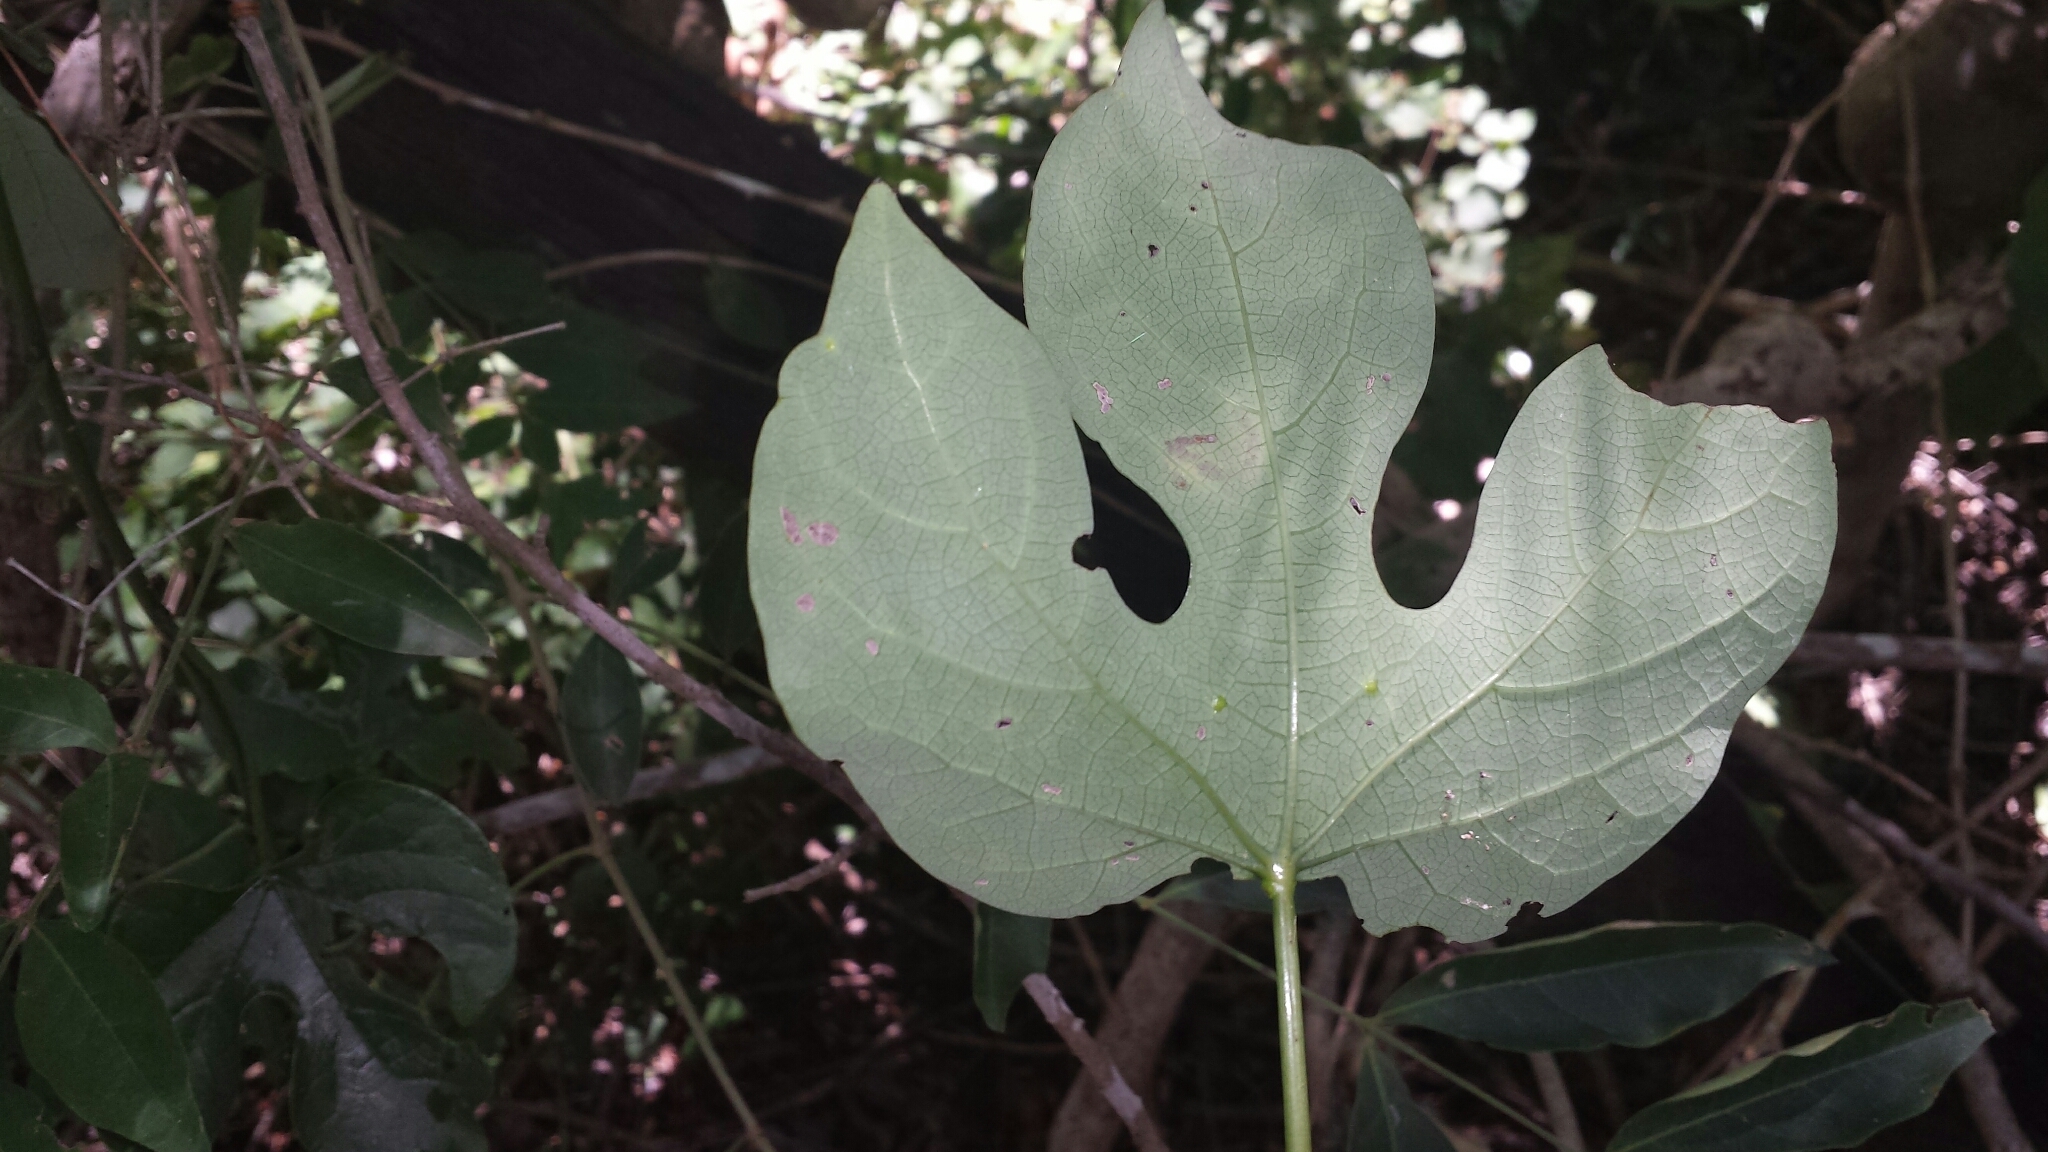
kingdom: Plantae
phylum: Tracheophyta
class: Magnoliopsida
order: Malpighiales
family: Passifloraceae
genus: Adenia
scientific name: Adenia firingalavensis
